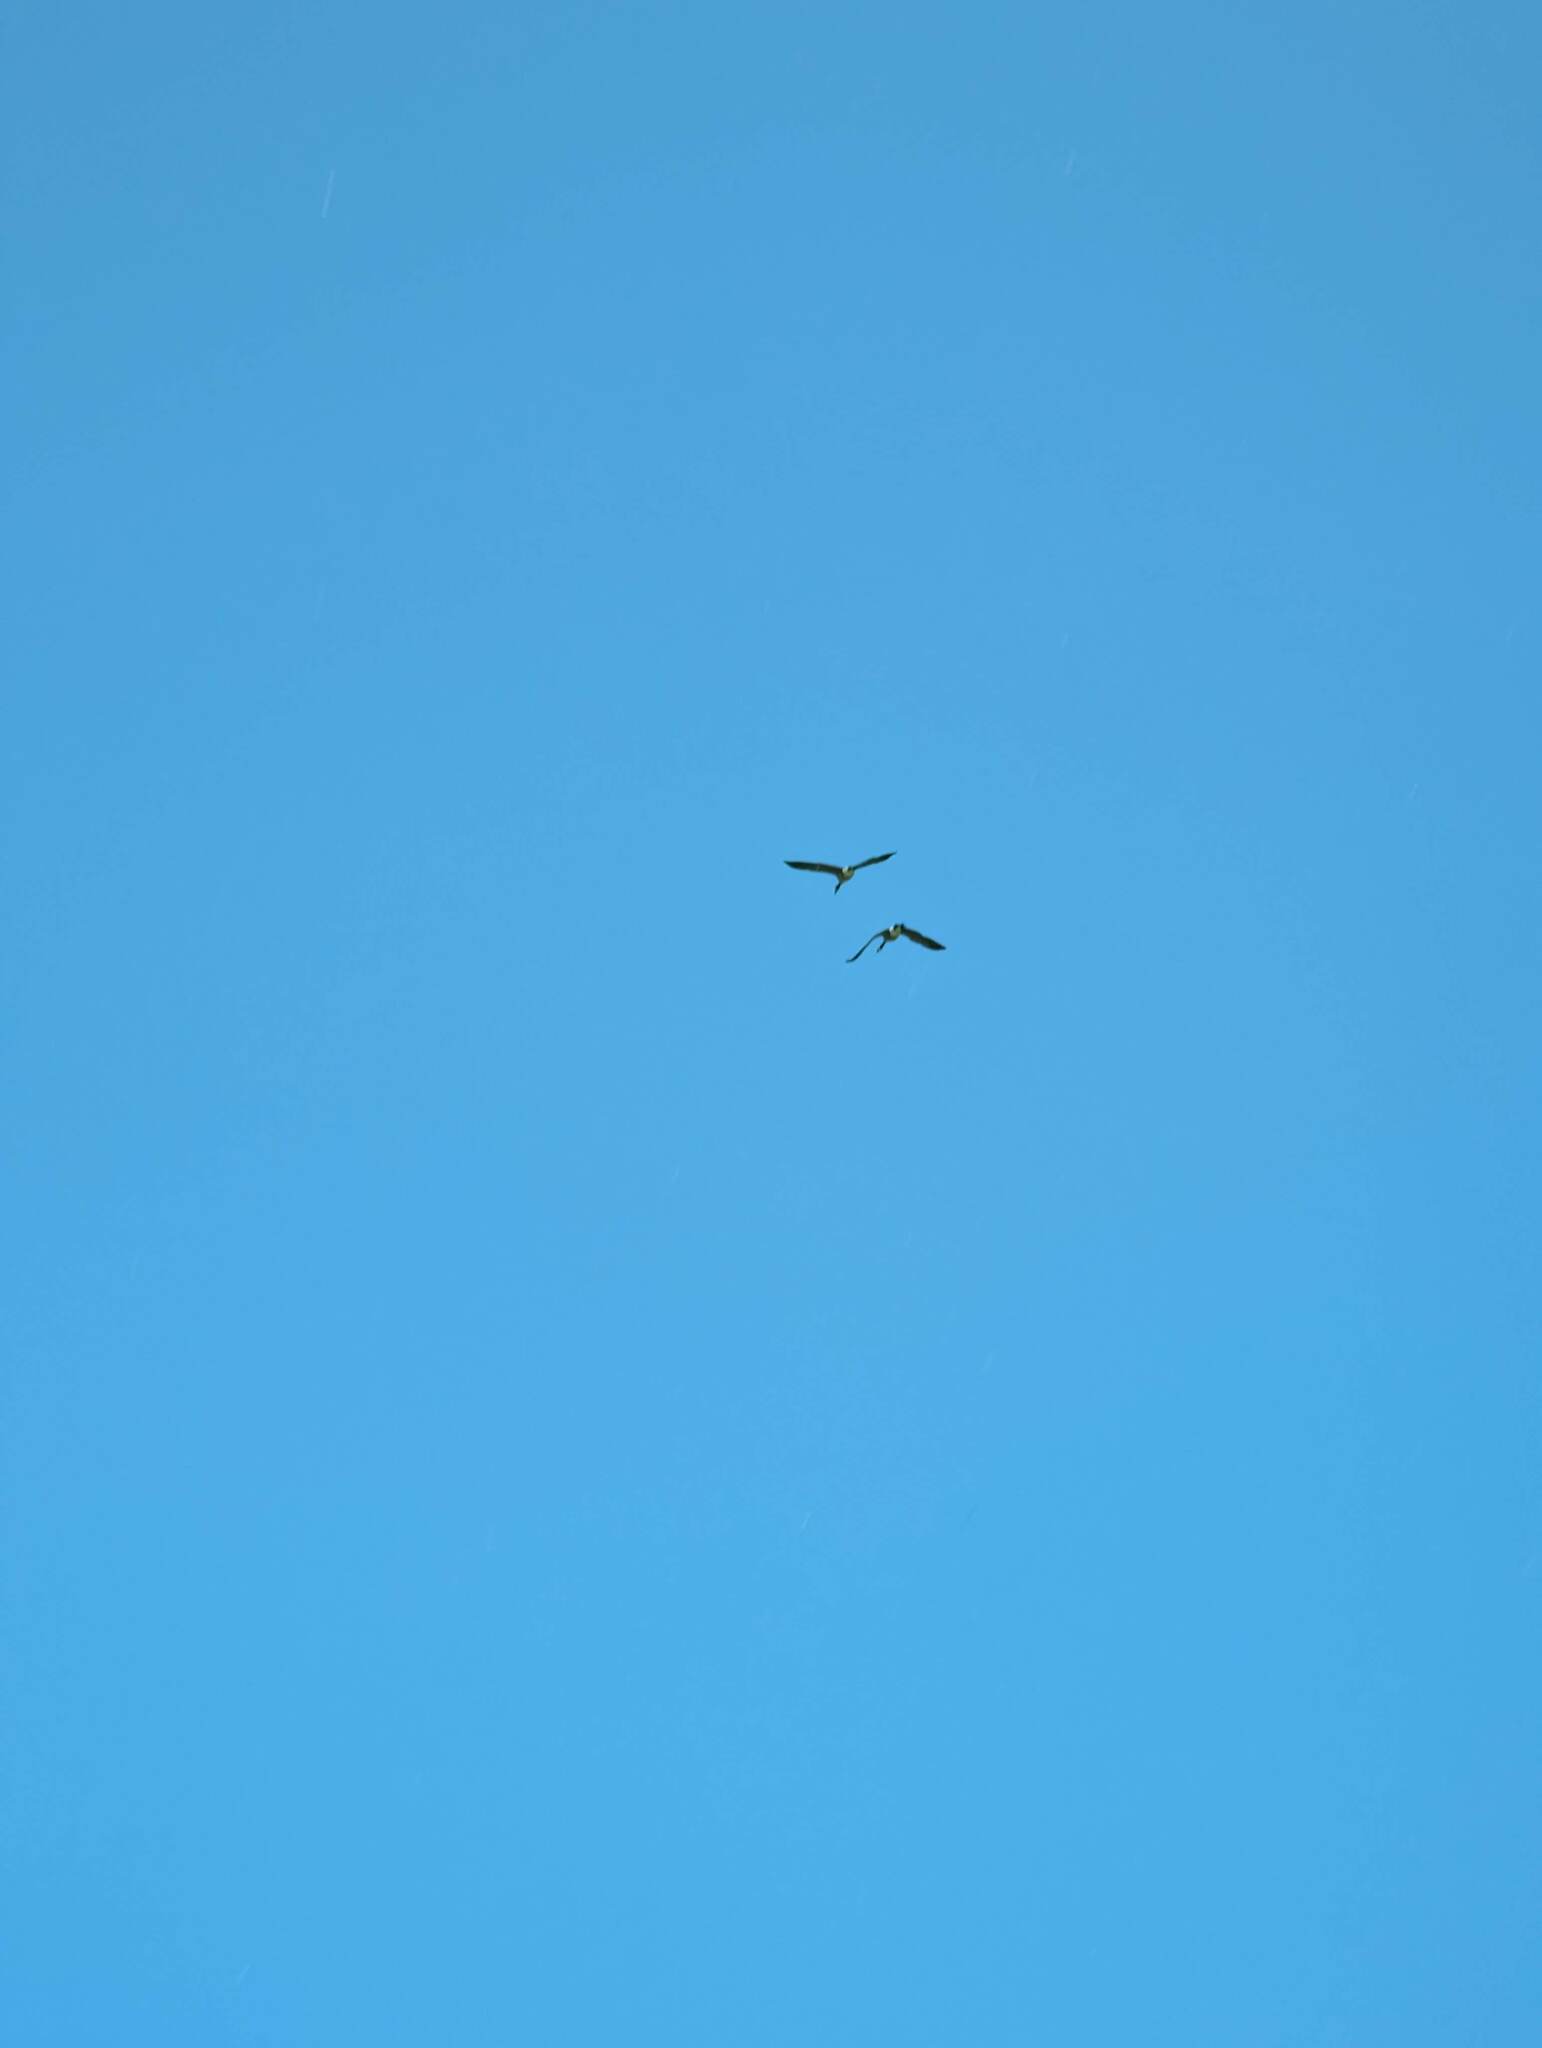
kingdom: Animalia
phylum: Chordata
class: Aves
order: Anseriformes
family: Anatidae
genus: Branta
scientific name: Branta canadensis
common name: Canada goose
